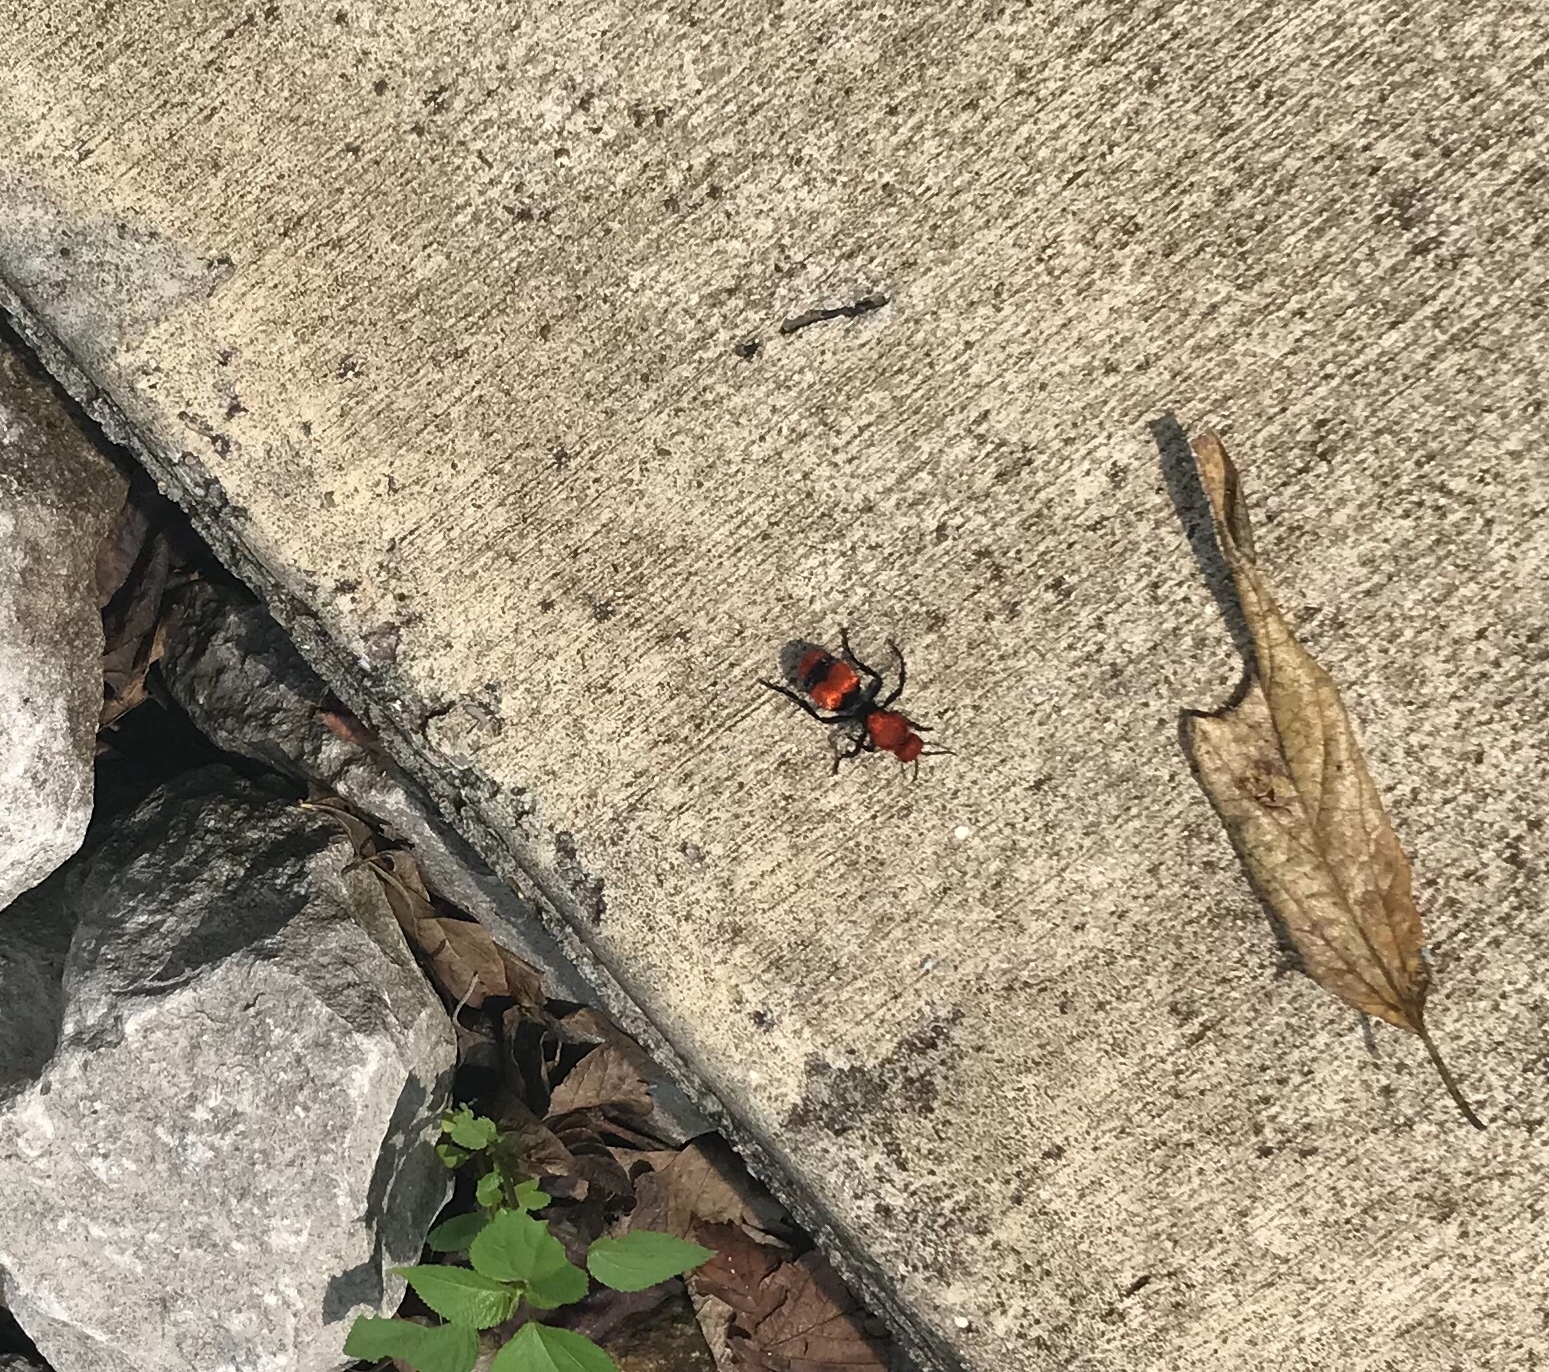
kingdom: Animalia
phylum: Arthropoda
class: Insecta
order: Hymenoptera
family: Mutillidae
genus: Dasymutilla
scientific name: Dasymutilla occidentalis
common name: Common eastern velvet ant
